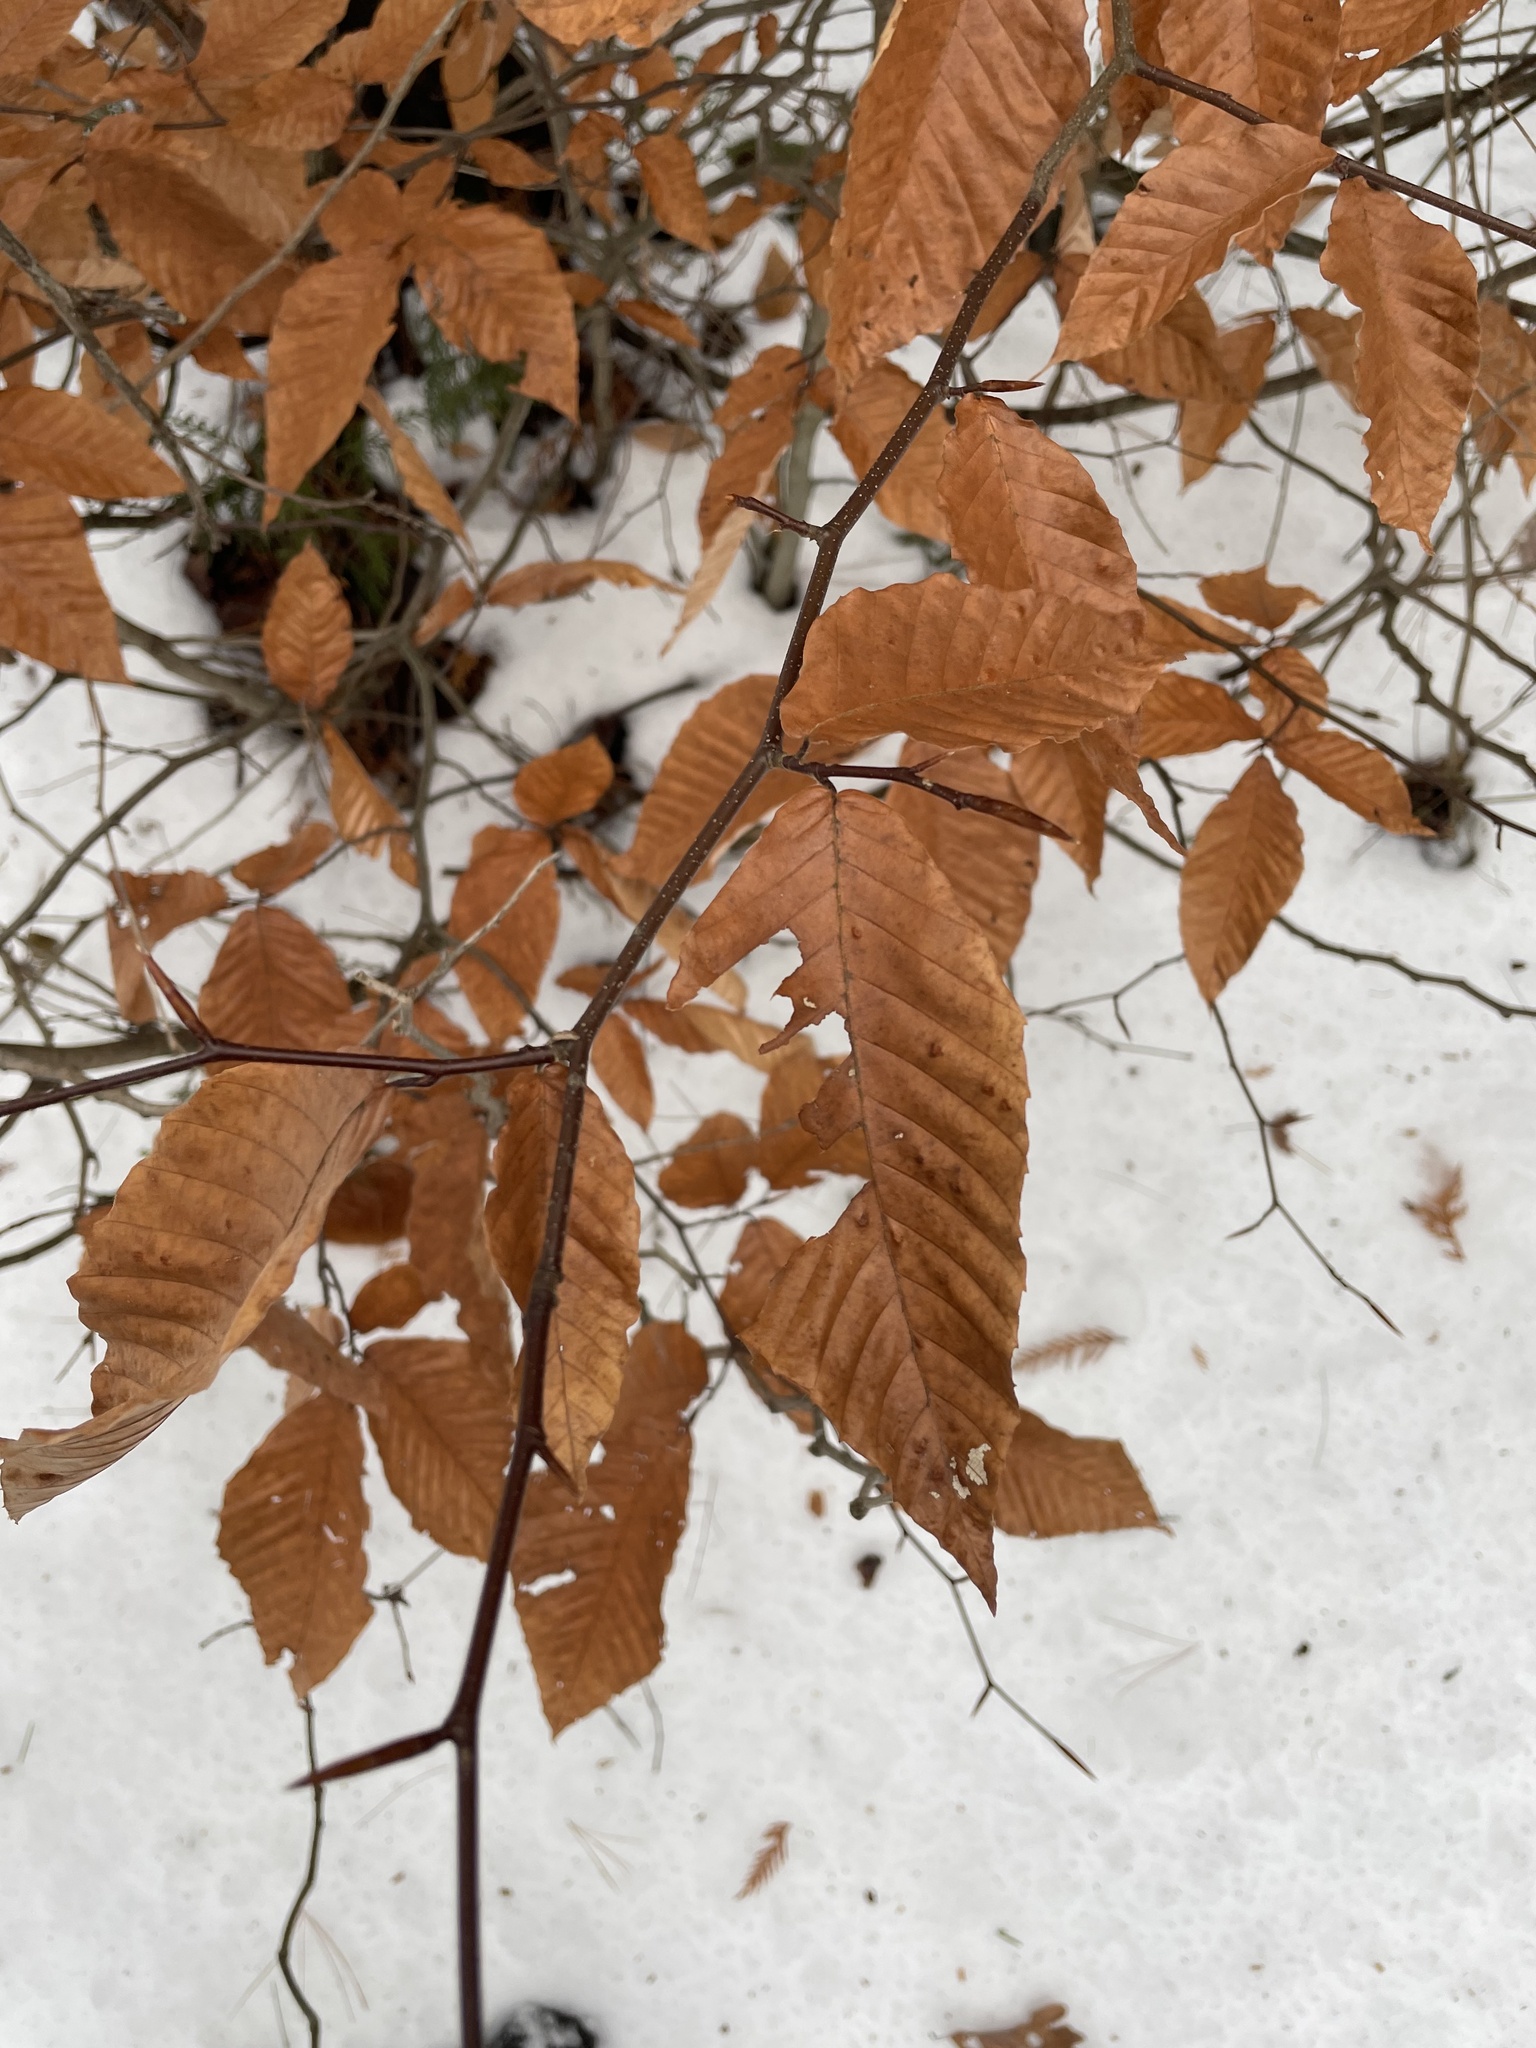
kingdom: Plantae
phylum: Tracheophyta
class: Magnoliopsida
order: Fagales
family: Fagaceae
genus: Fagus
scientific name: Fagus grandifolia
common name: American beech
